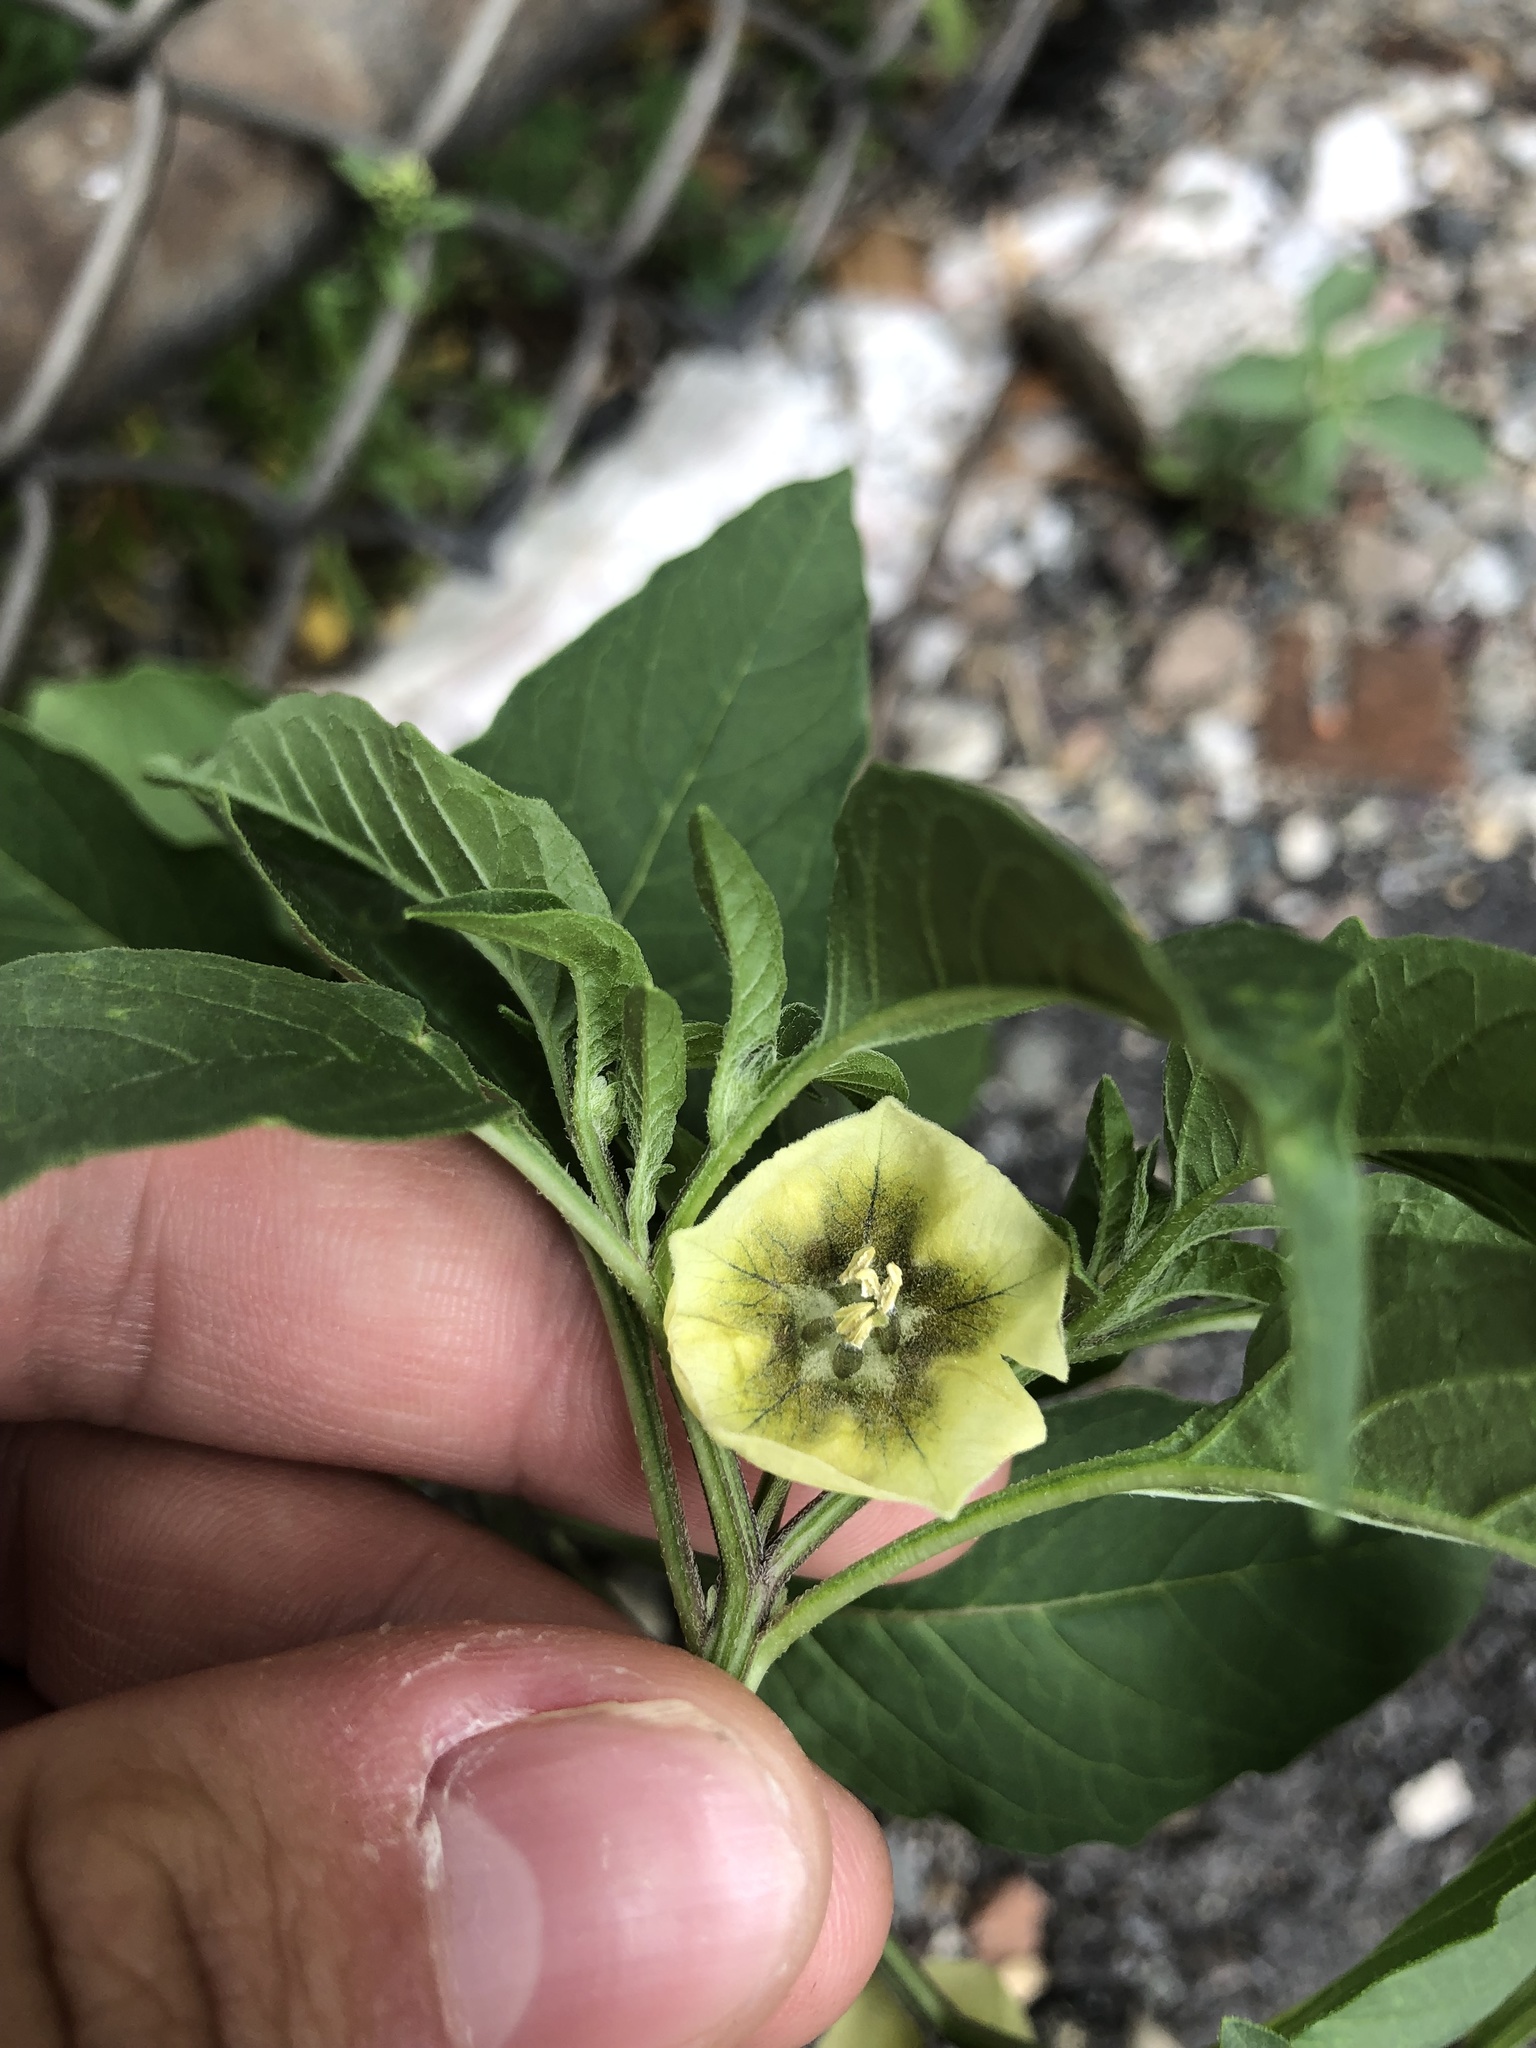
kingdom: Plantae
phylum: Tracheophyta
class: Magnoliopsida
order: Solanales
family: Solanaceae
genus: Physalis
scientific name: Physalis longifolia
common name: Common ground-cherry
